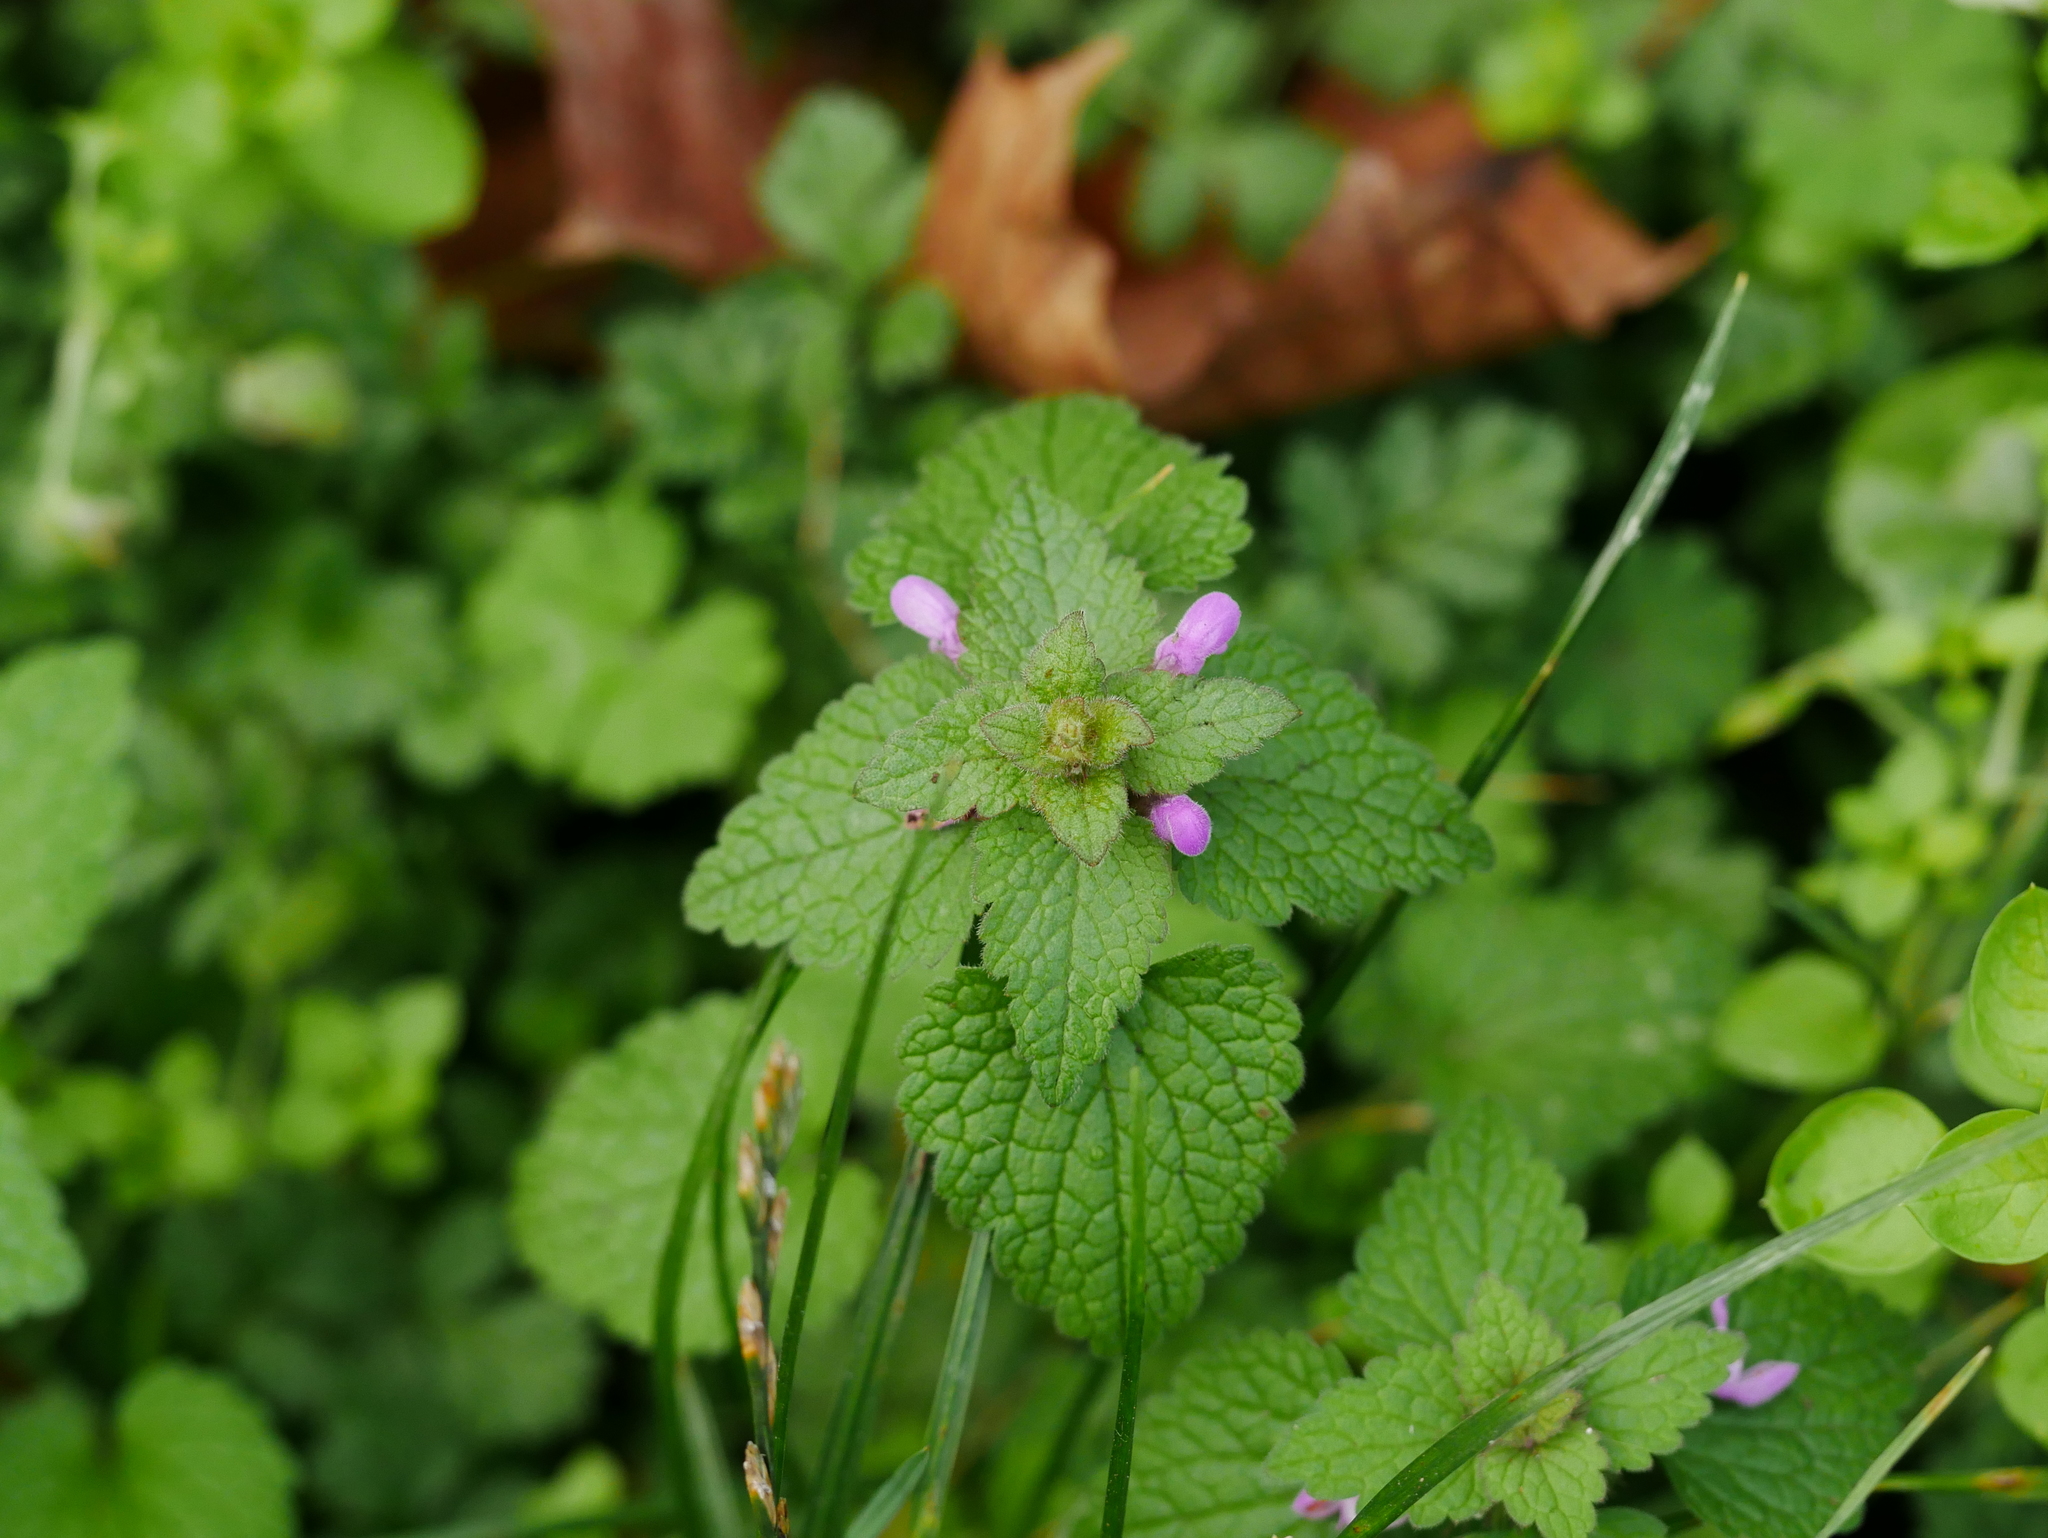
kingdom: Plantae
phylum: Tracheophyta
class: Magnoliopsida
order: Lamiales
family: Lamiaceae
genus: Lamium
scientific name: Lamium purpureum
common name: Red dead-nettle
